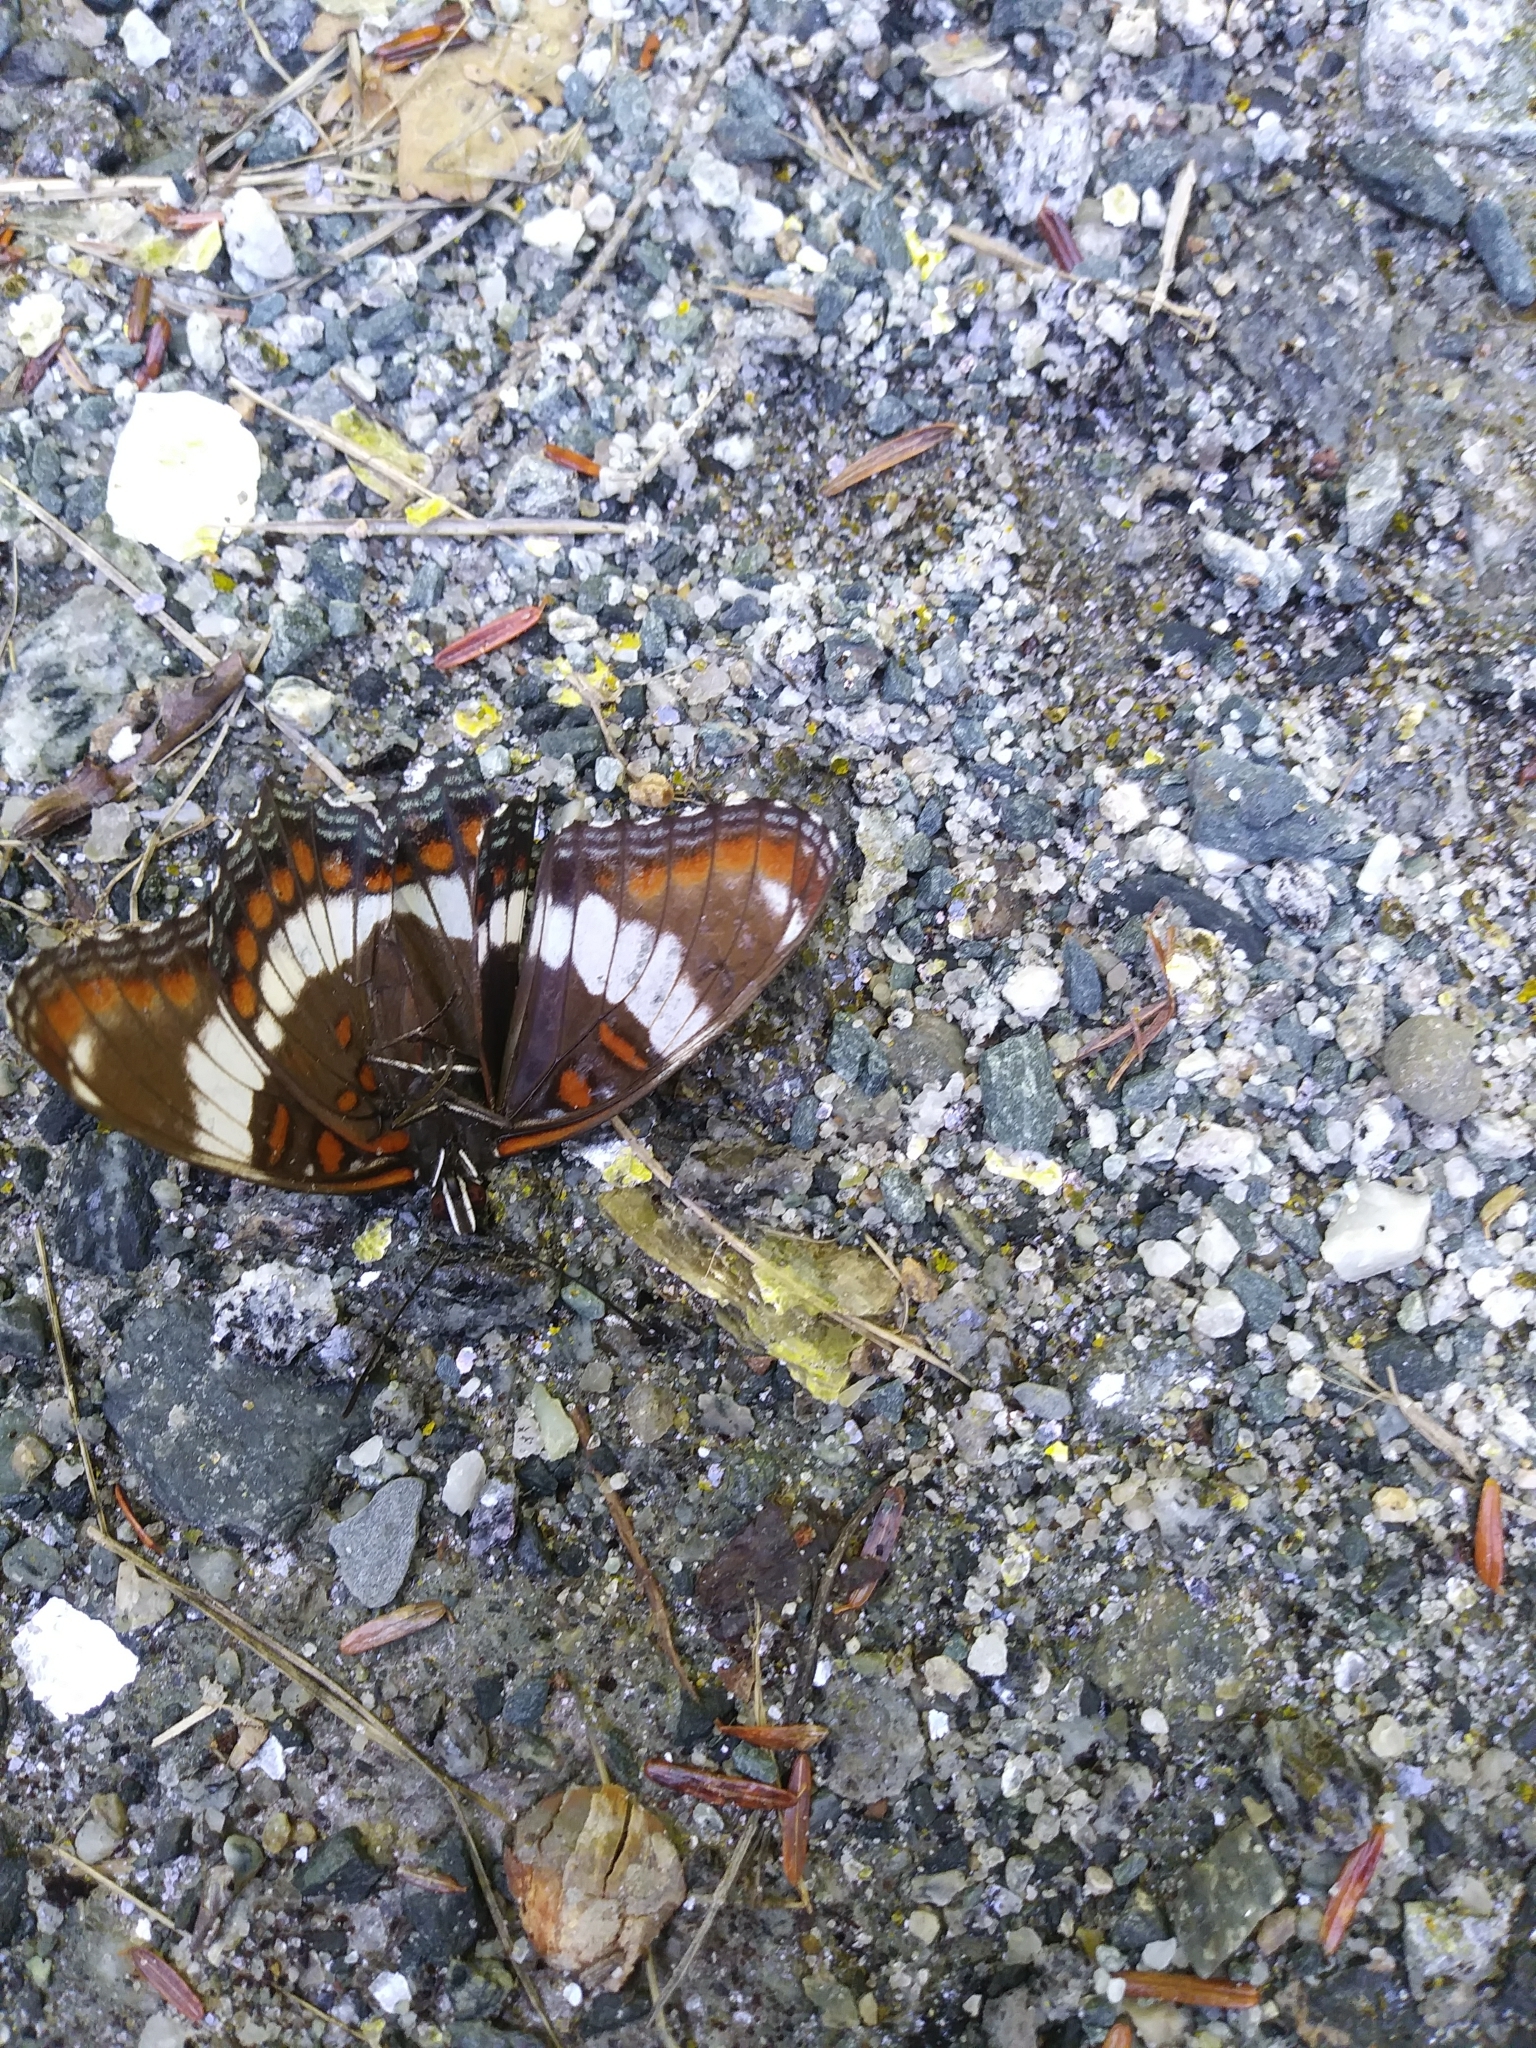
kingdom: Animalia
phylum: Arthropoda
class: Insecta
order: Lepidoptera
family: Nymphalidae
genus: Limenitis
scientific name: Limenitis arthemis
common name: Red-spotted admiral
